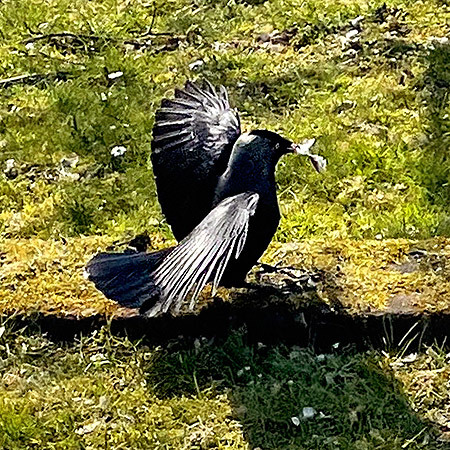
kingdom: Animalia
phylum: Chordata
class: Aves
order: Passeriformes
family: Corvidae
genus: Coloeus
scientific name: Coloeus monedula
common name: Western jackdaw
